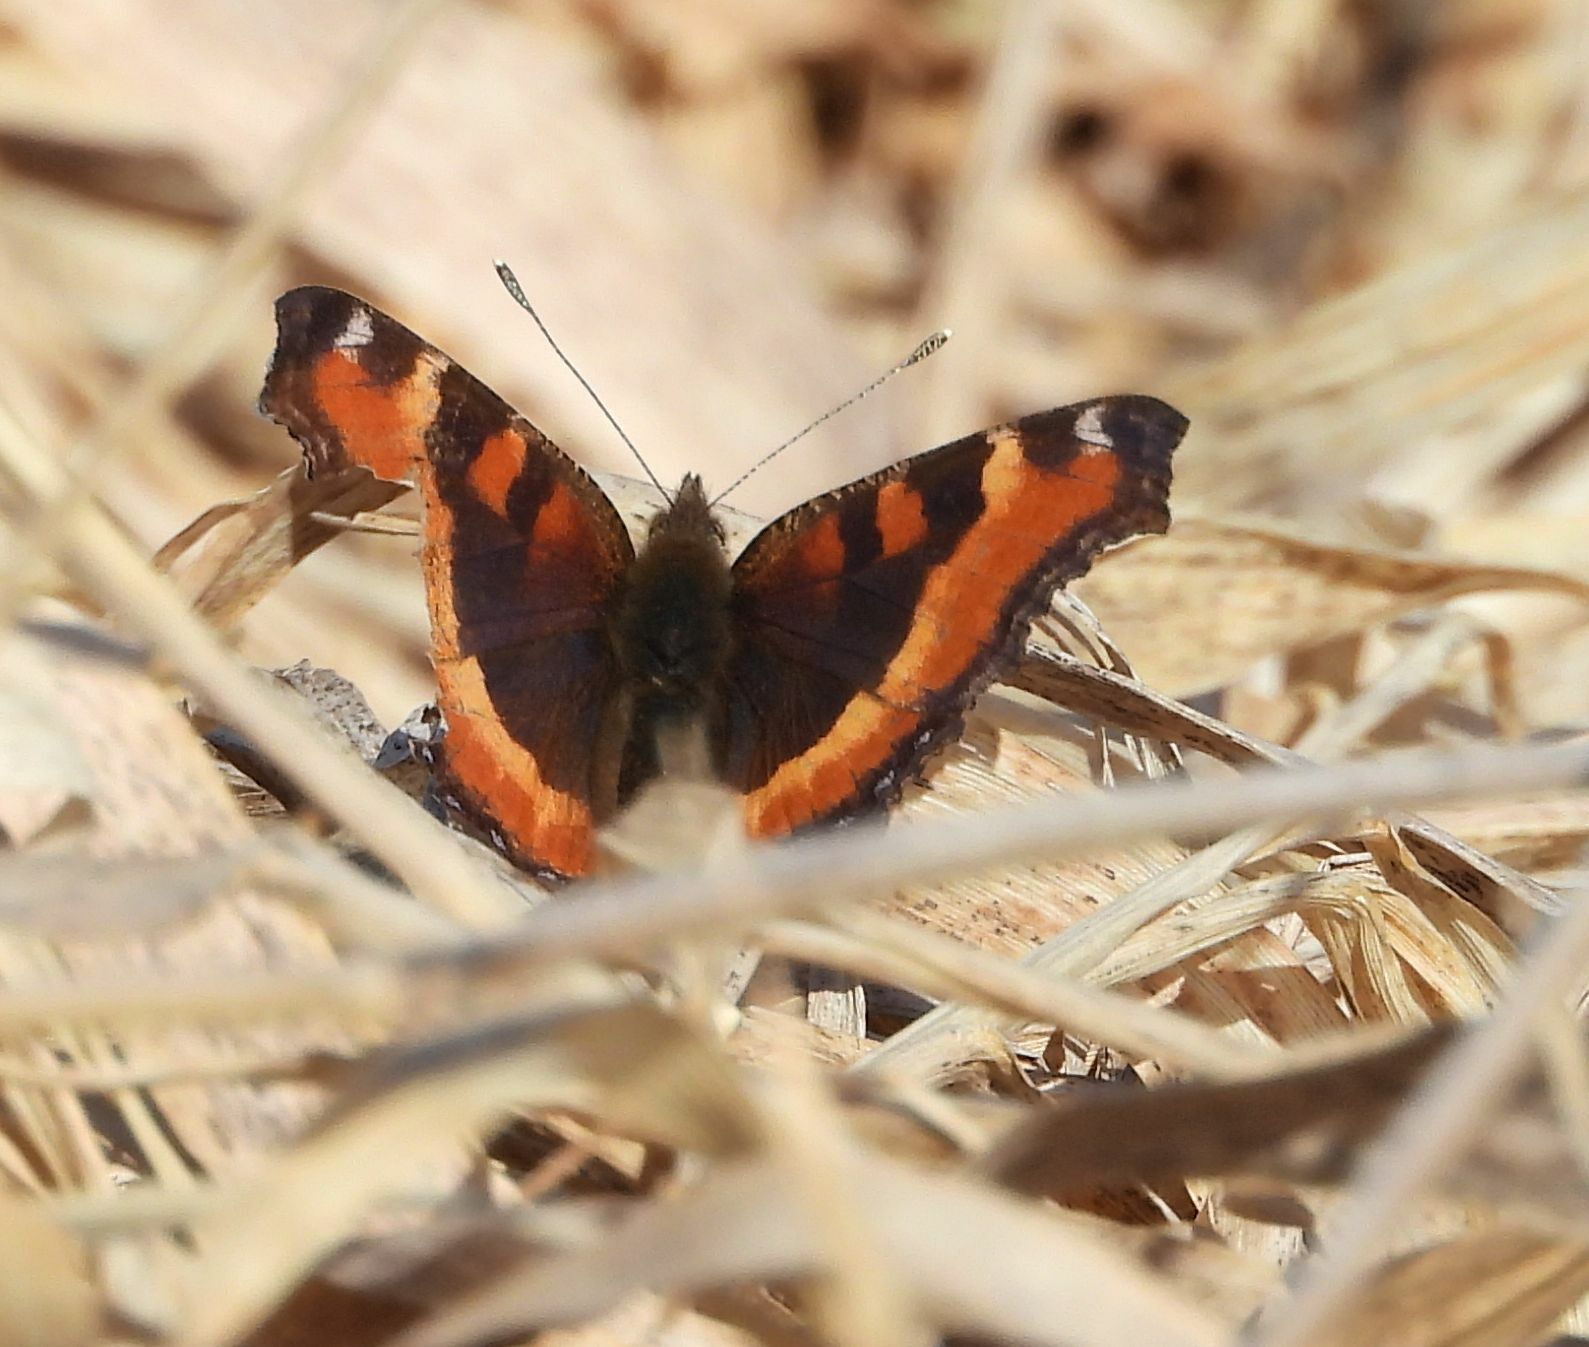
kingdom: Animalia
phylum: Arthropoda
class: Insecta
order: Lepidoptera
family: Nymphalidae
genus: Aglais
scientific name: Aglais milberti
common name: Milbert's tortoiseshell
